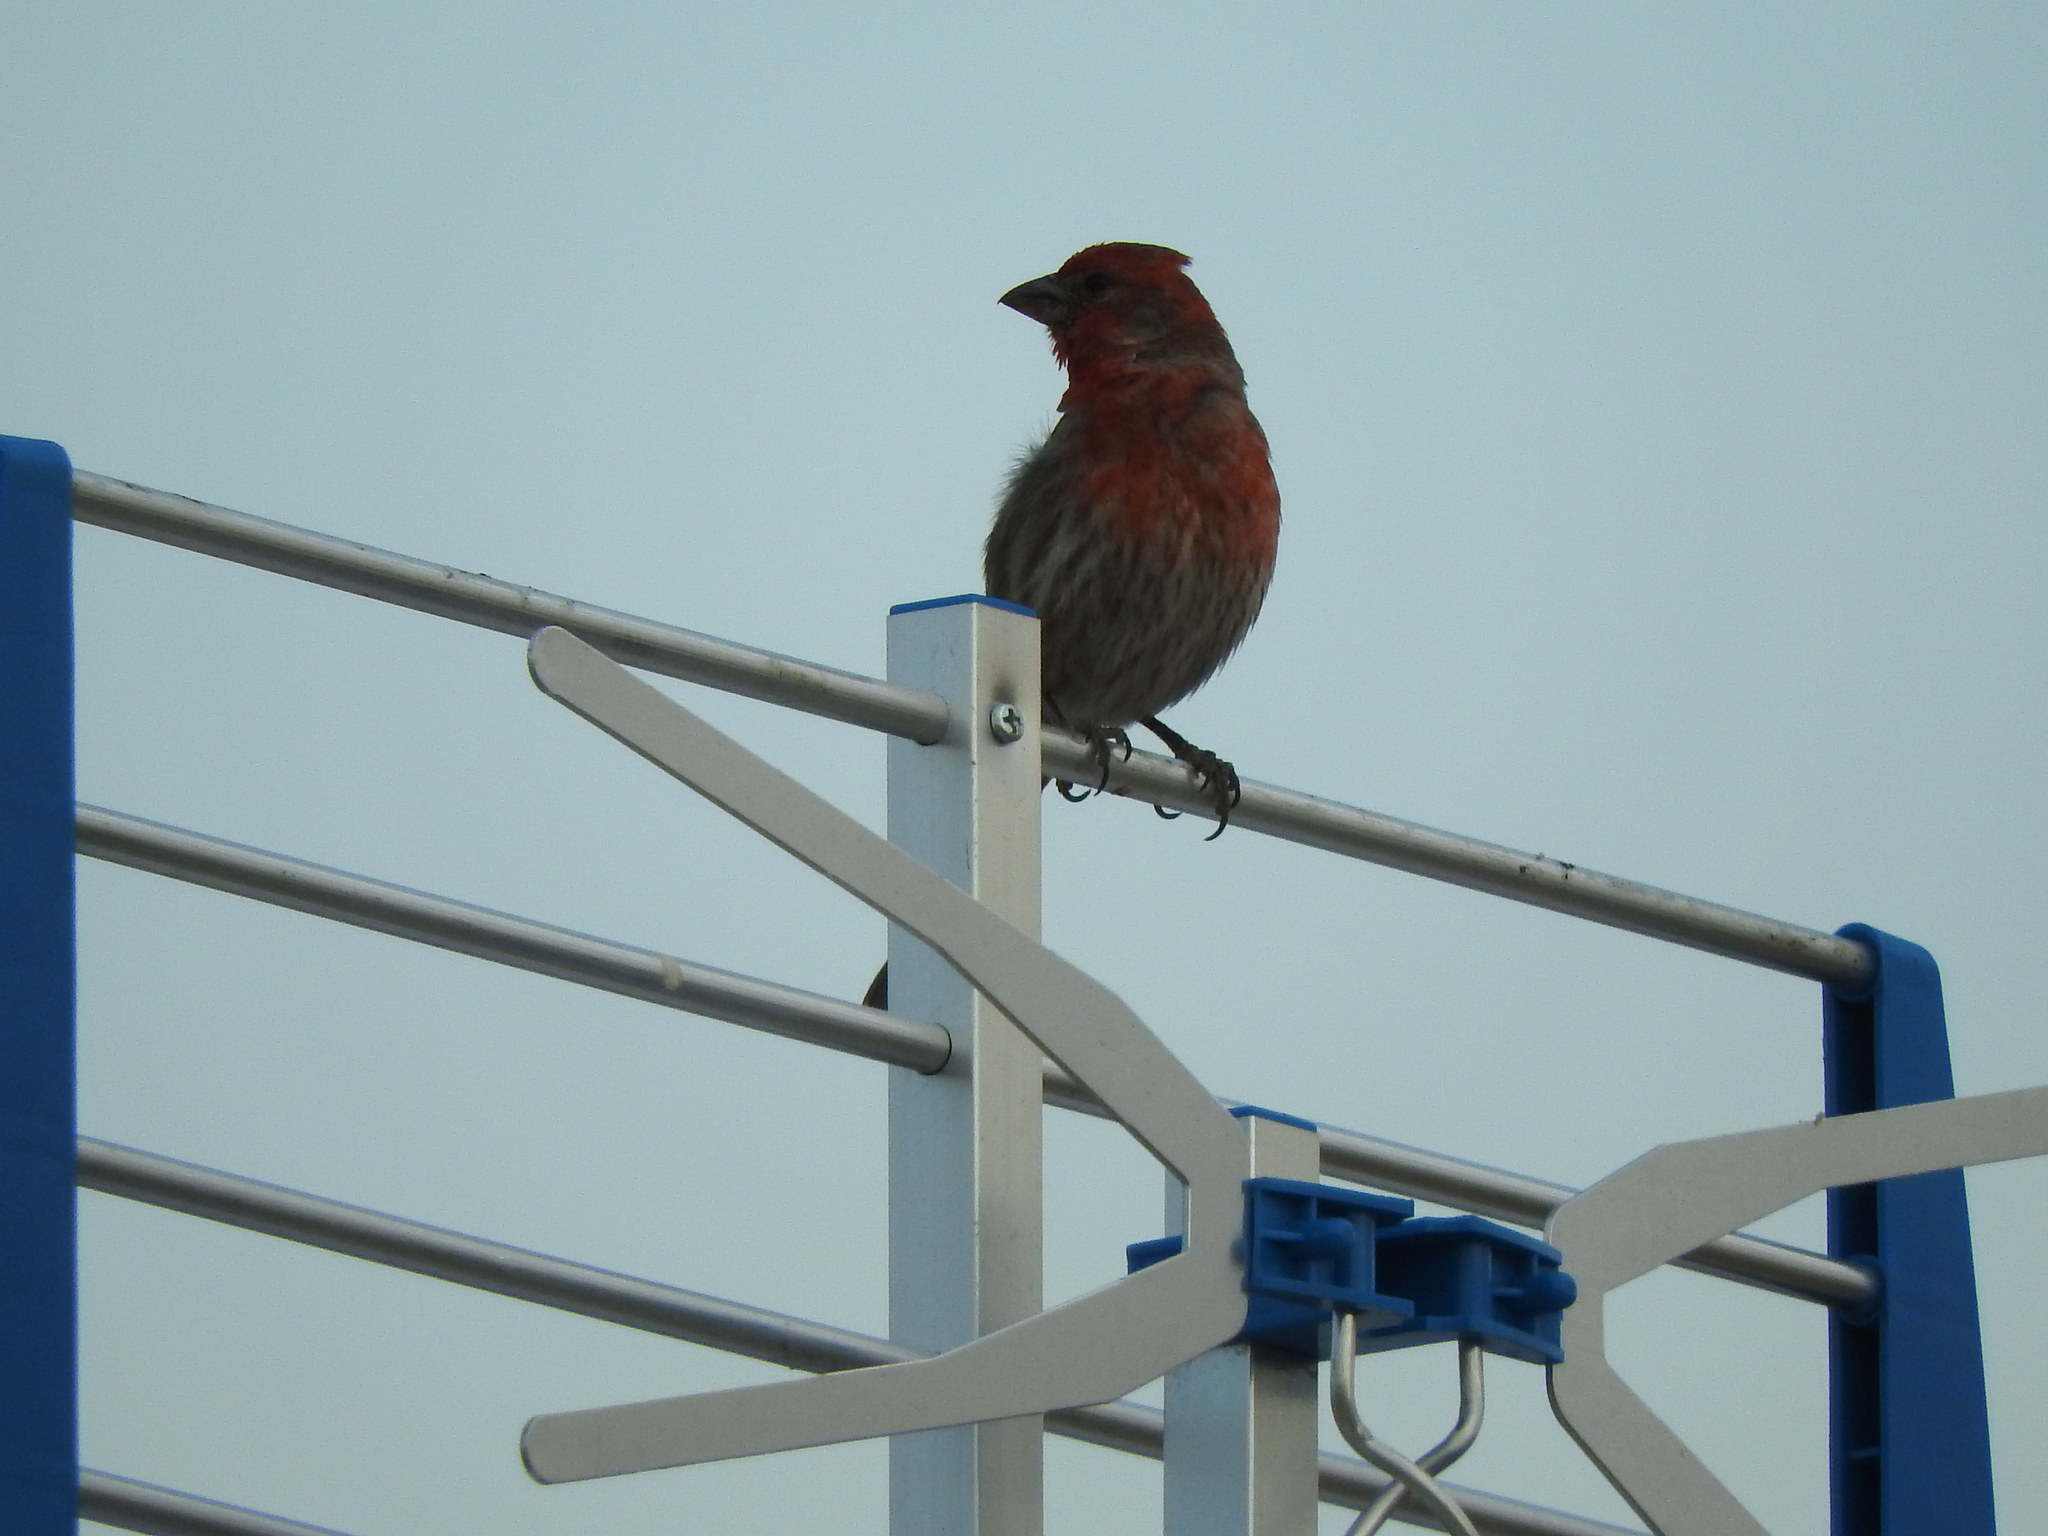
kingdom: Animalia
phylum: Chordata
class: Aves
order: Passeriformes
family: Fringillidae
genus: Haemorhous
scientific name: Haemorhous mexicanus
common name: House finch
